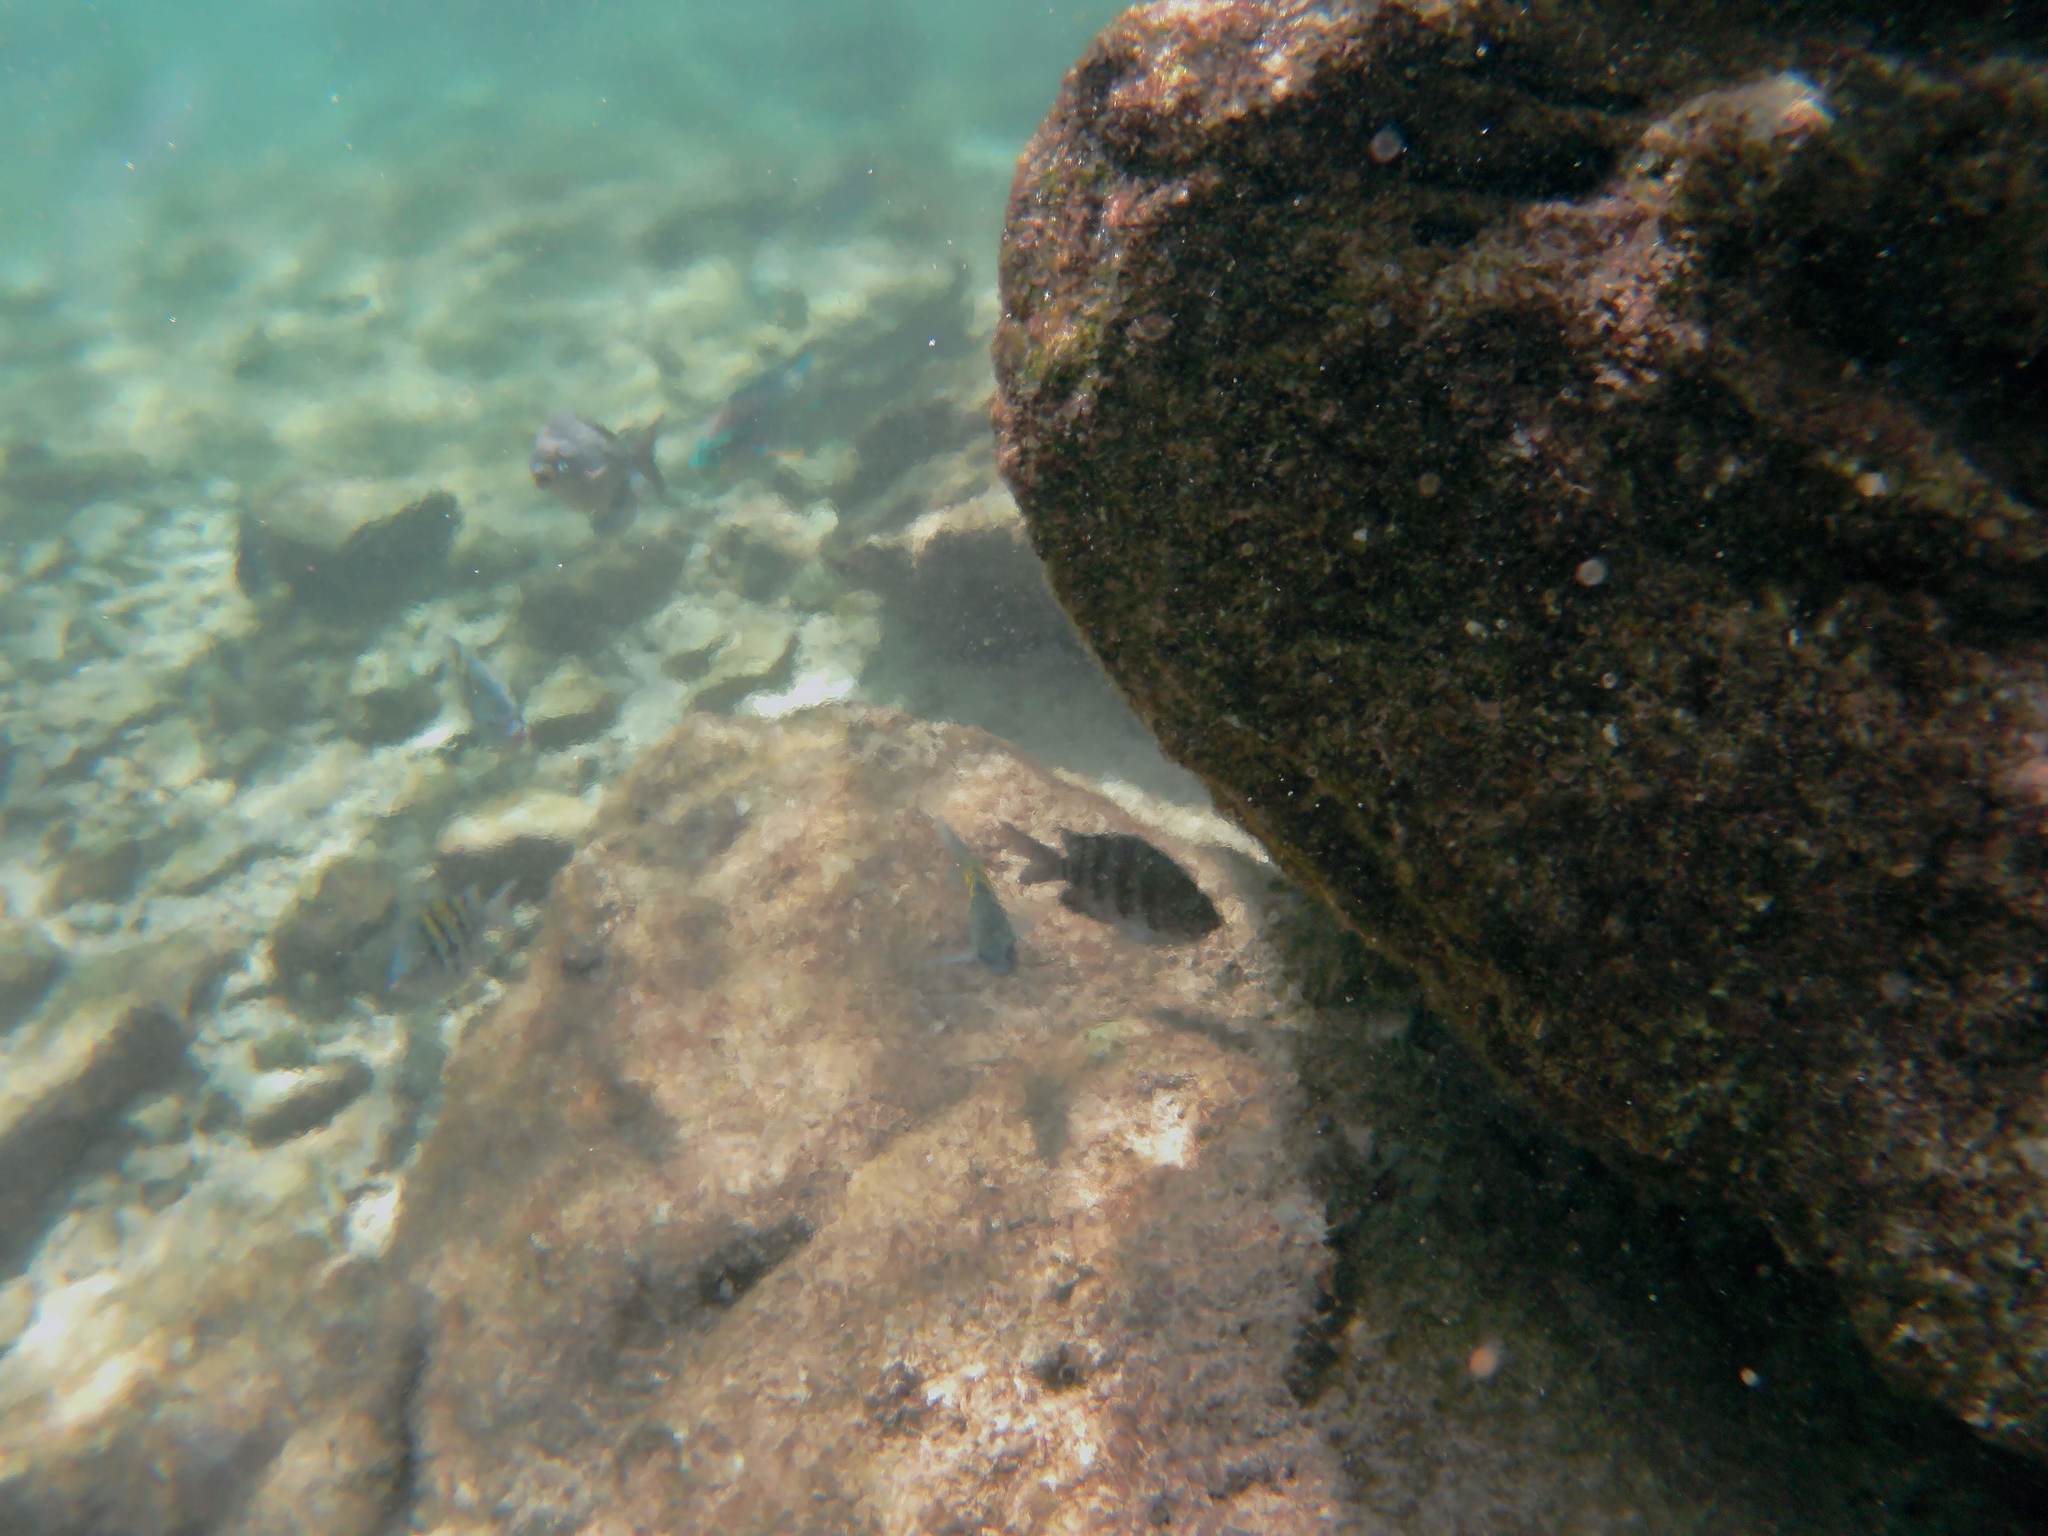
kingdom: Animalia
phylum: Chordata
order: Perciformes
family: Scaridae
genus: Scarus
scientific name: Scarus iseri
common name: Striped parrotfish
